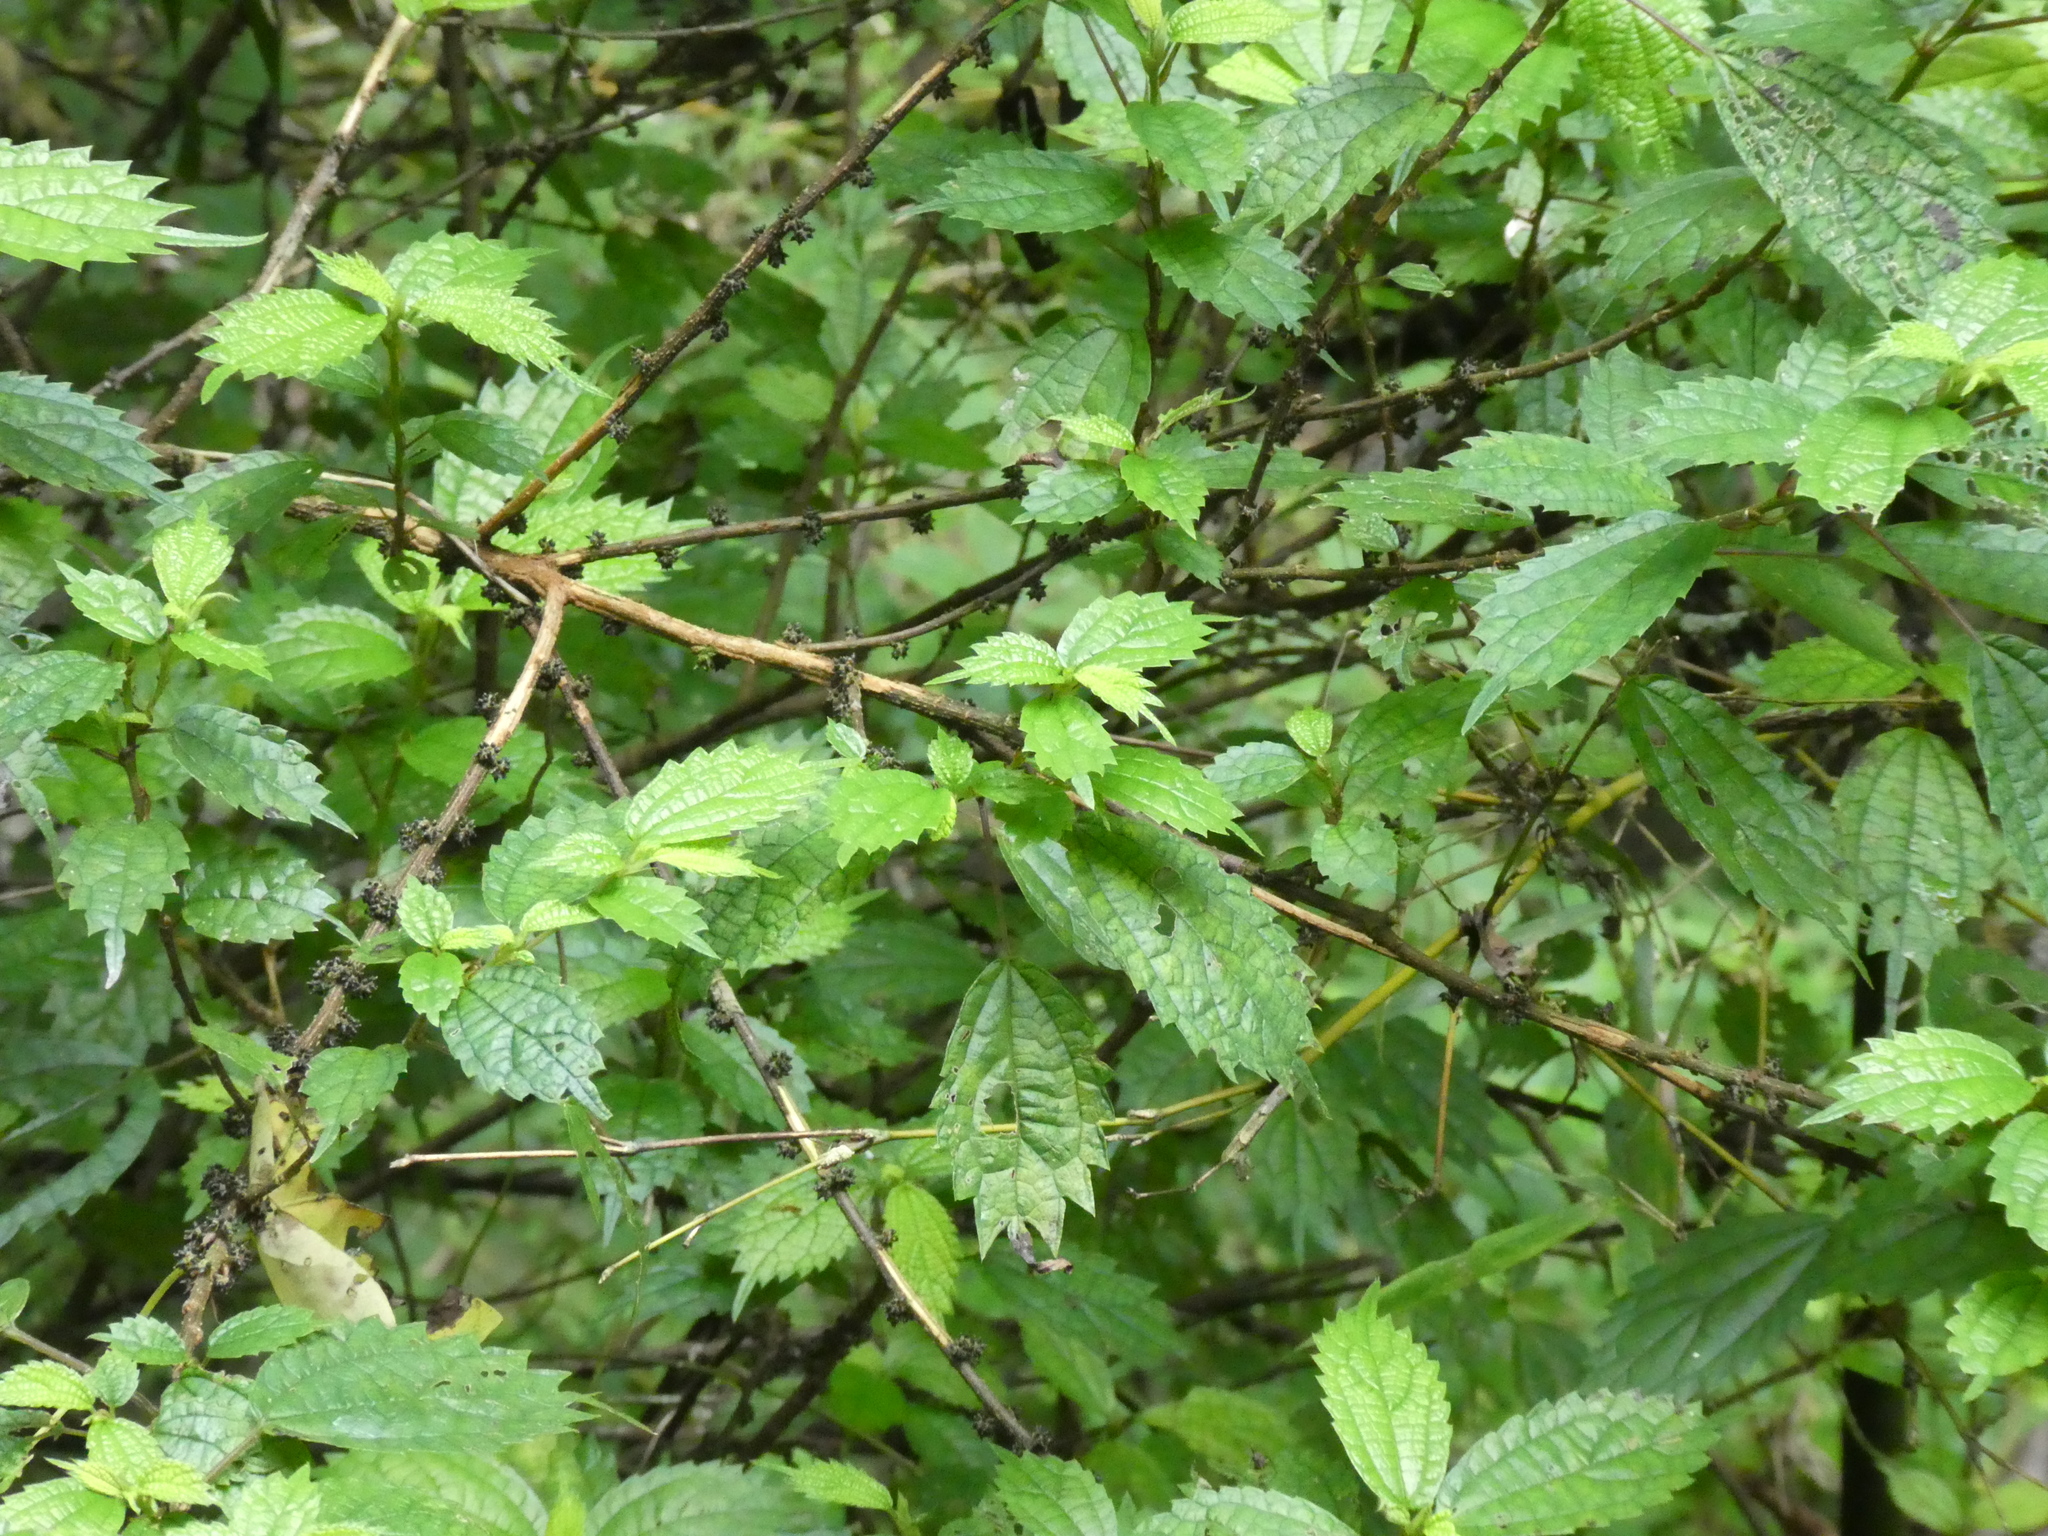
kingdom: Plantae
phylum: Tracheophyta
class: Magnoliopsida
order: Rosales
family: Urticaceae
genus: Oreocnide
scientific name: Oreocnide frutescens
